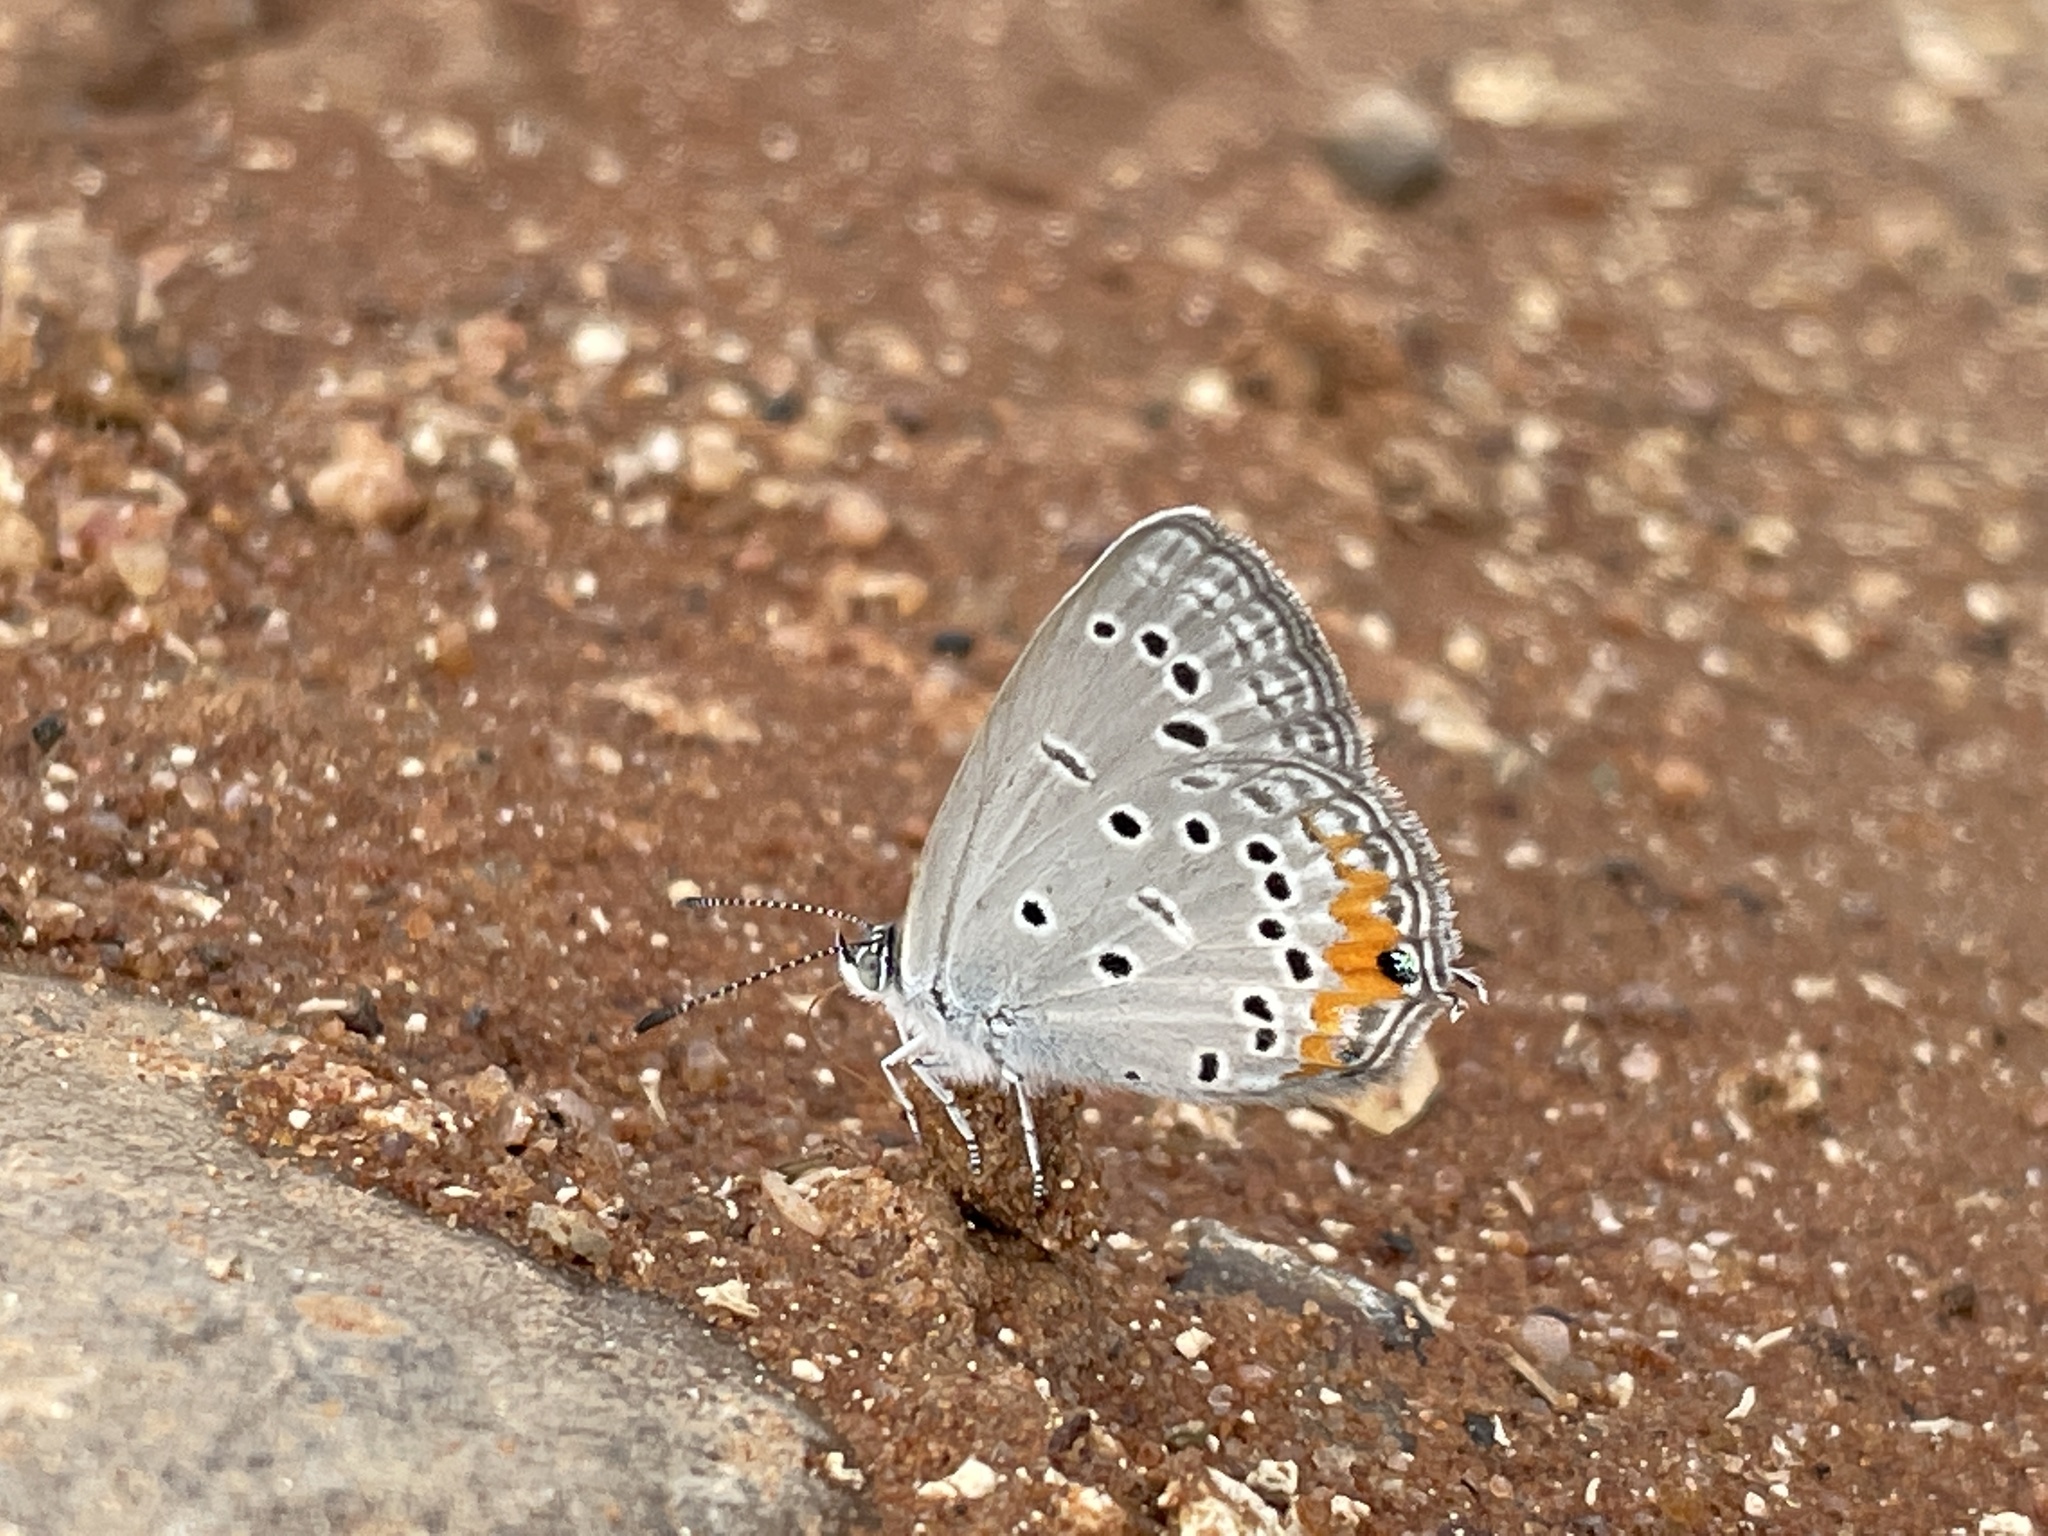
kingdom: Animalia
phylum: Arthropoda
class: Insecta
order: Lepidoptera
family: Lycaenidae
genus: Cupidopsis
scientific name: Cupidopsis jobates
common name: Tailed meadow blue
